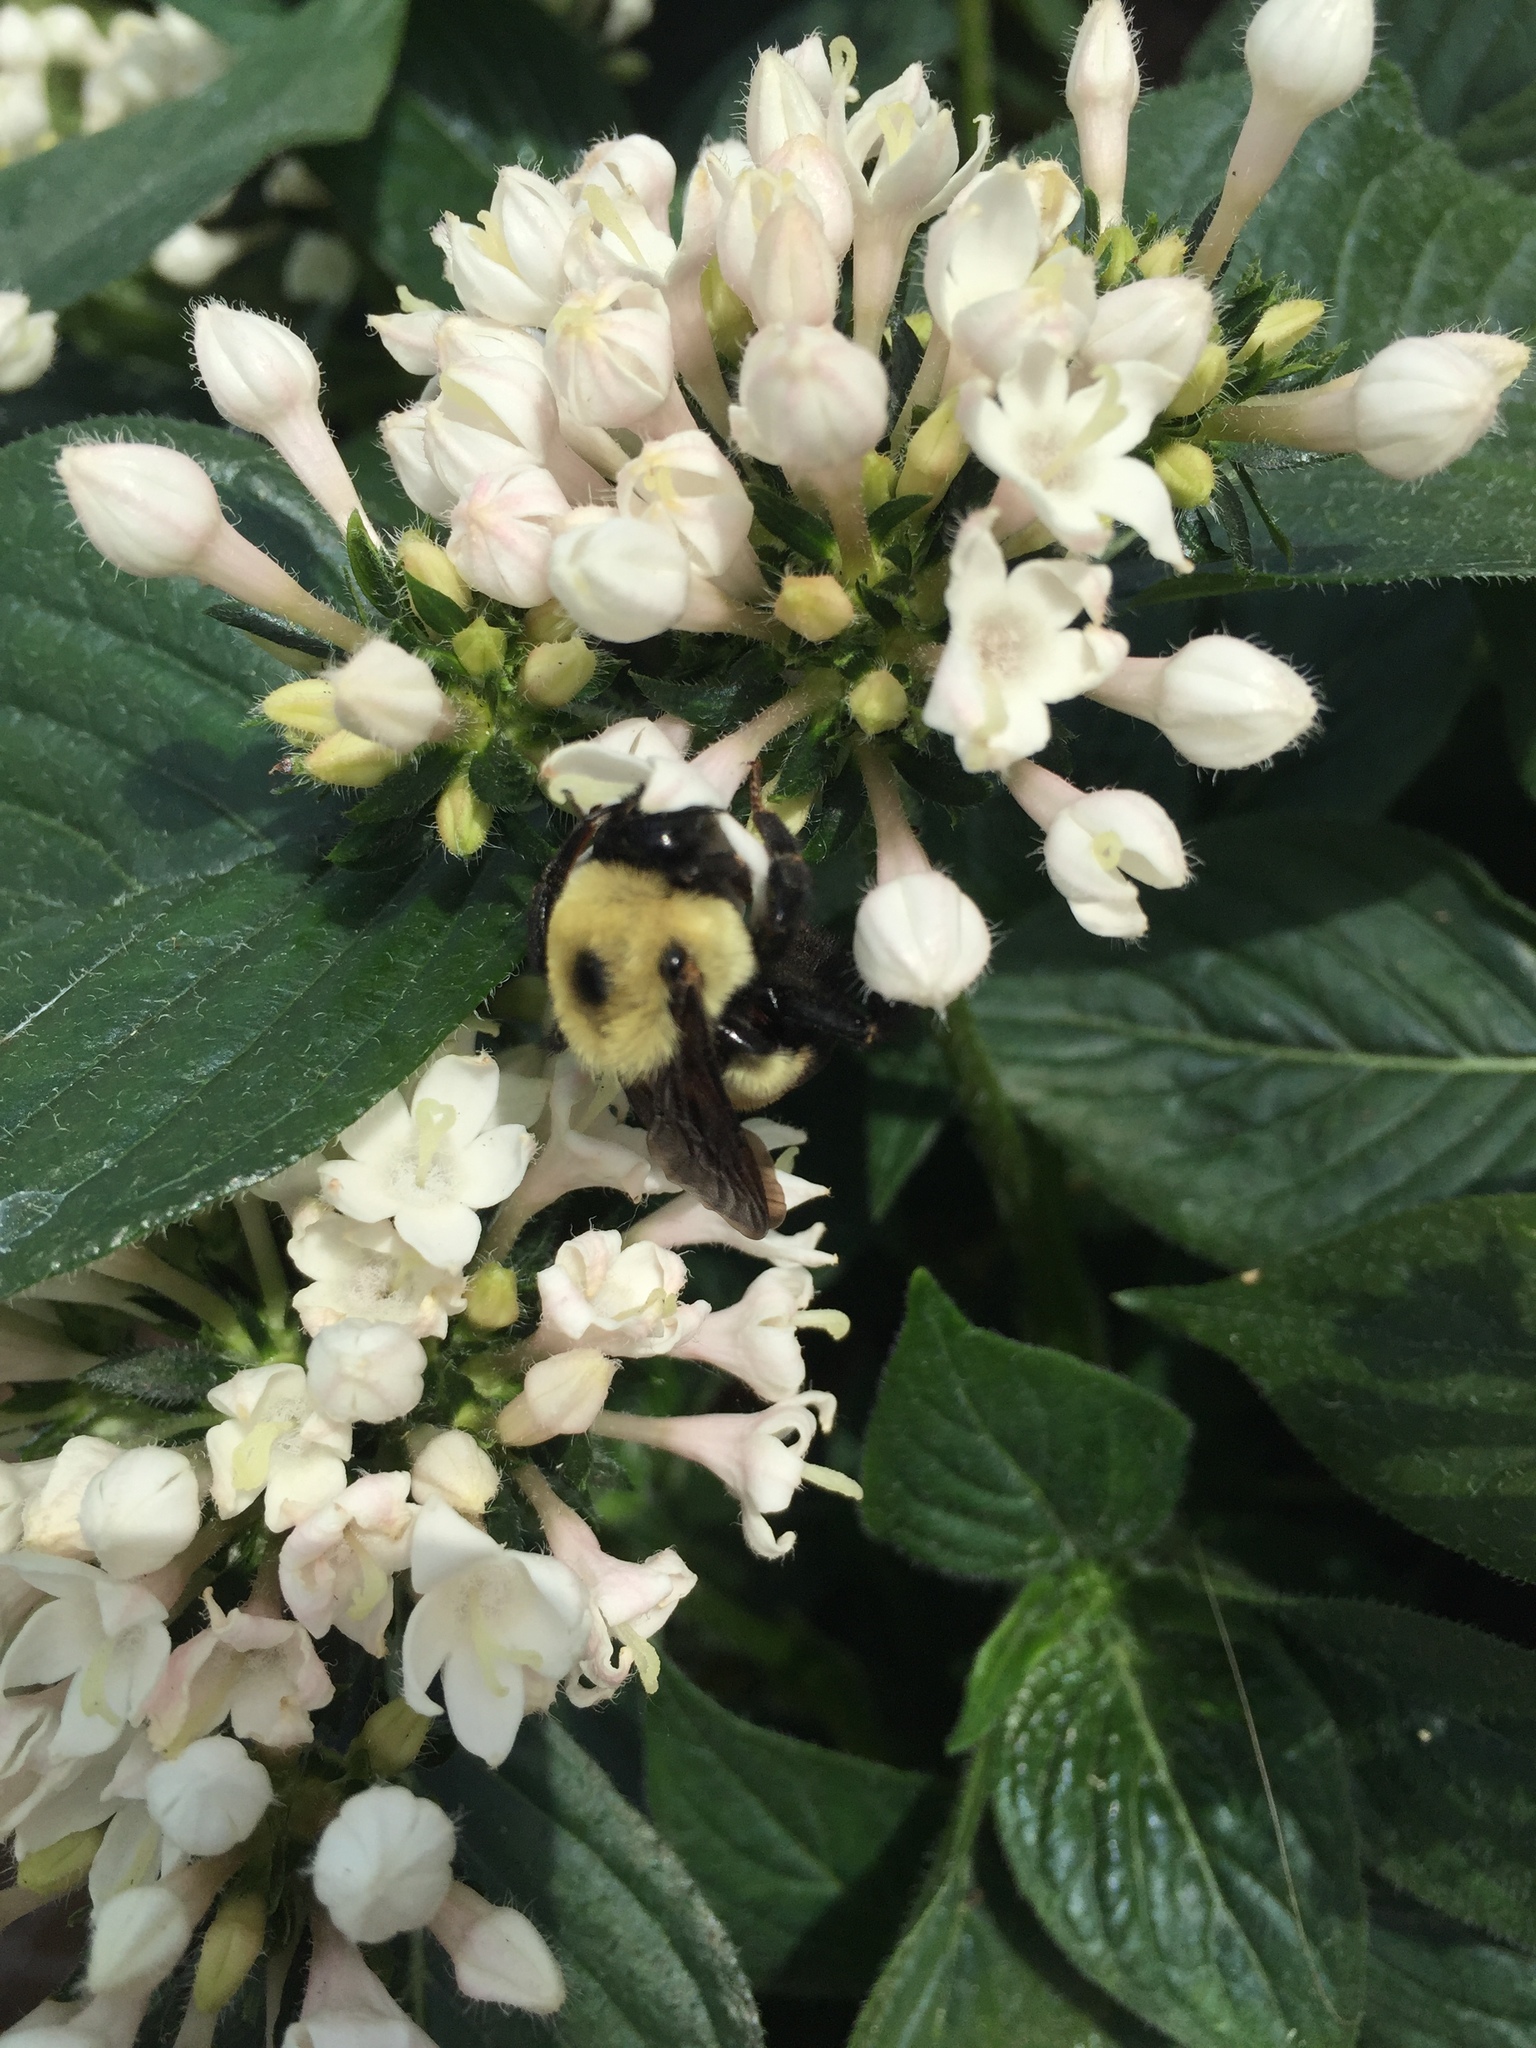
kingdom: Animalia
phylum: Arthropoda
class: Insecta
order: Hymenoptera
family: Apidae
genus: Bombus
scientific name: Bombus griseocollis
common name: Brown-belted bumble bee
